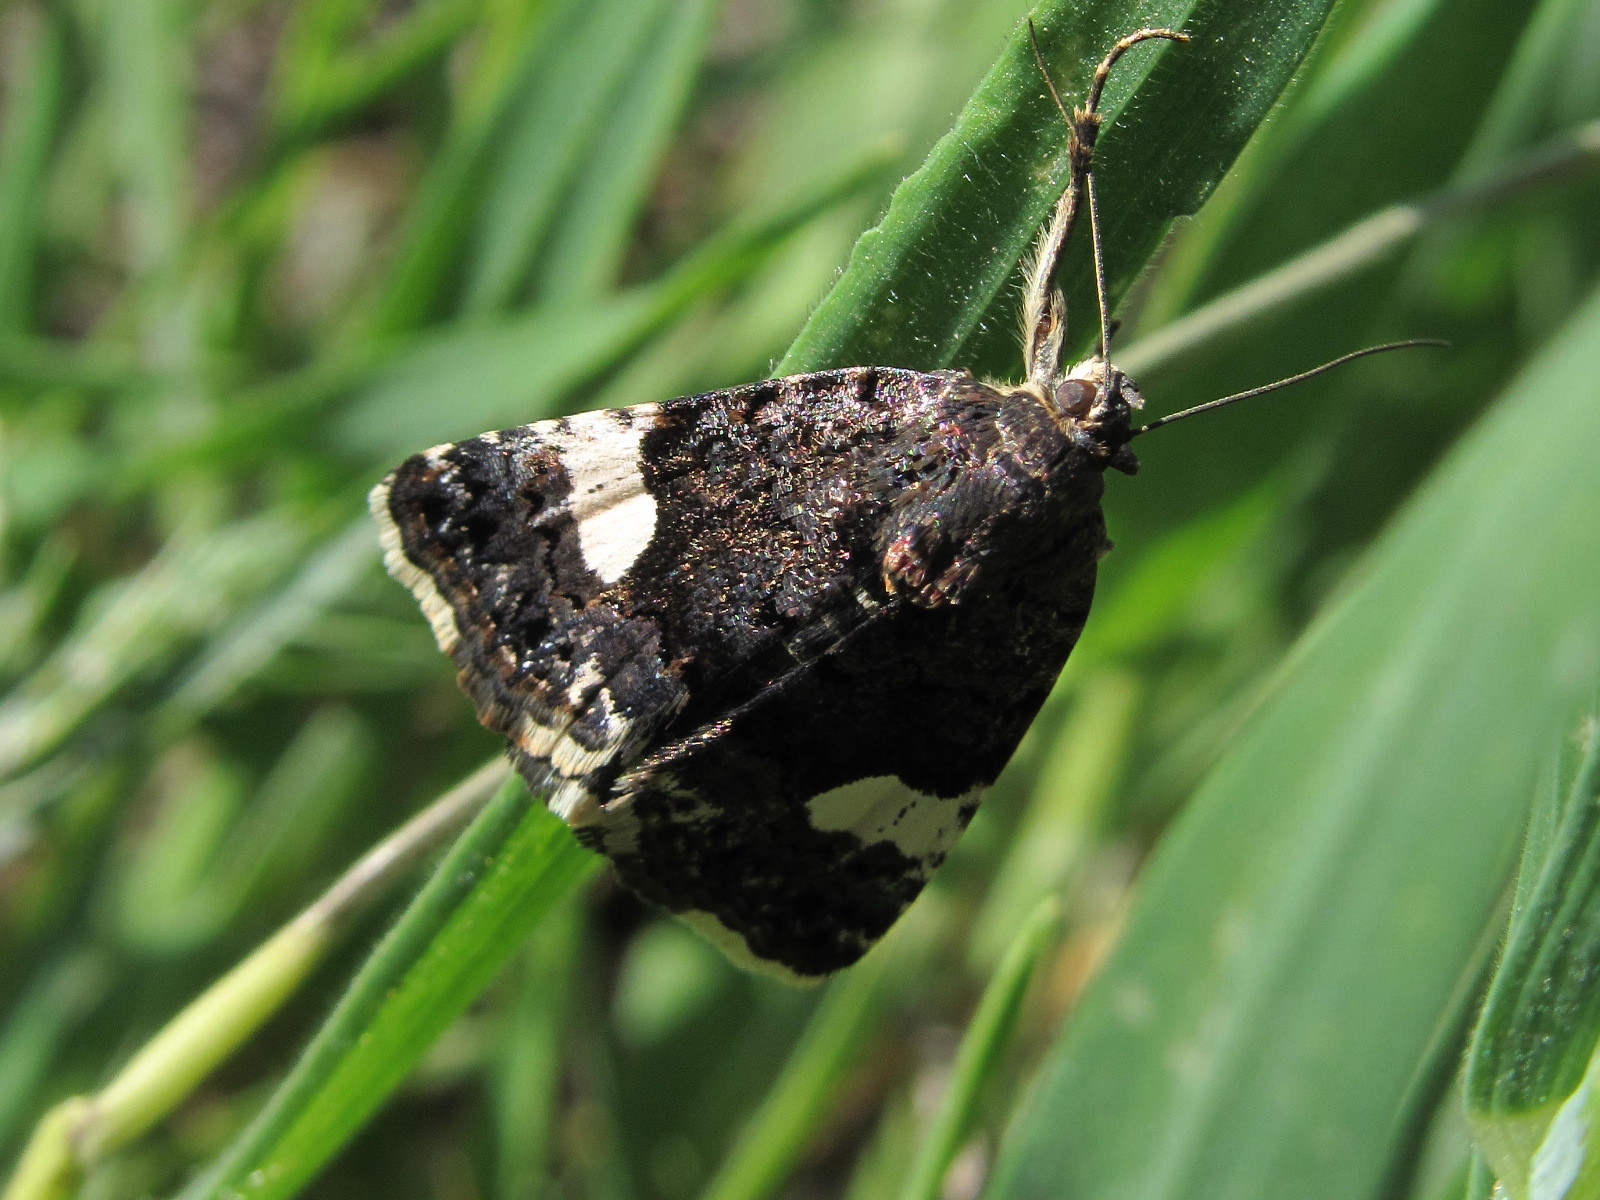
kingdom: Animalia
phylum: Arthropoda
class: Insecta
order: Lepidoptera
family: Erebidae
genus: Tyta
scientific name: Tyta luctuosa
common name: Four-spotted
